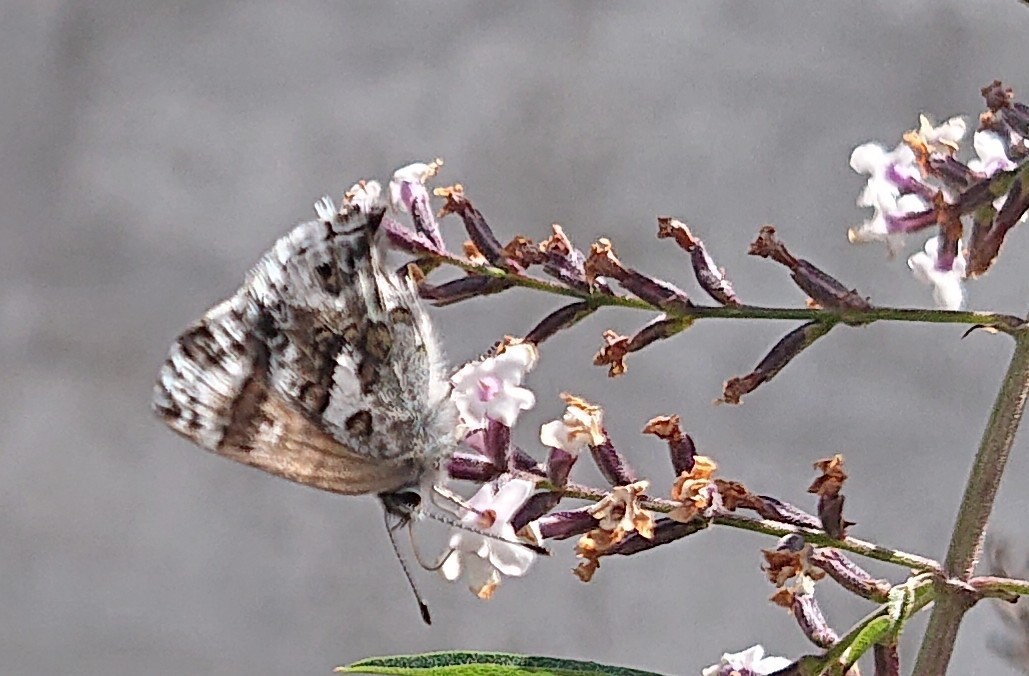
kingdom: Animalia
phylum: Arthropoda
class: Insecta
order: Lepidoptera
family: Lycaenidae
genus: Strymon
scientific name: Strymon
